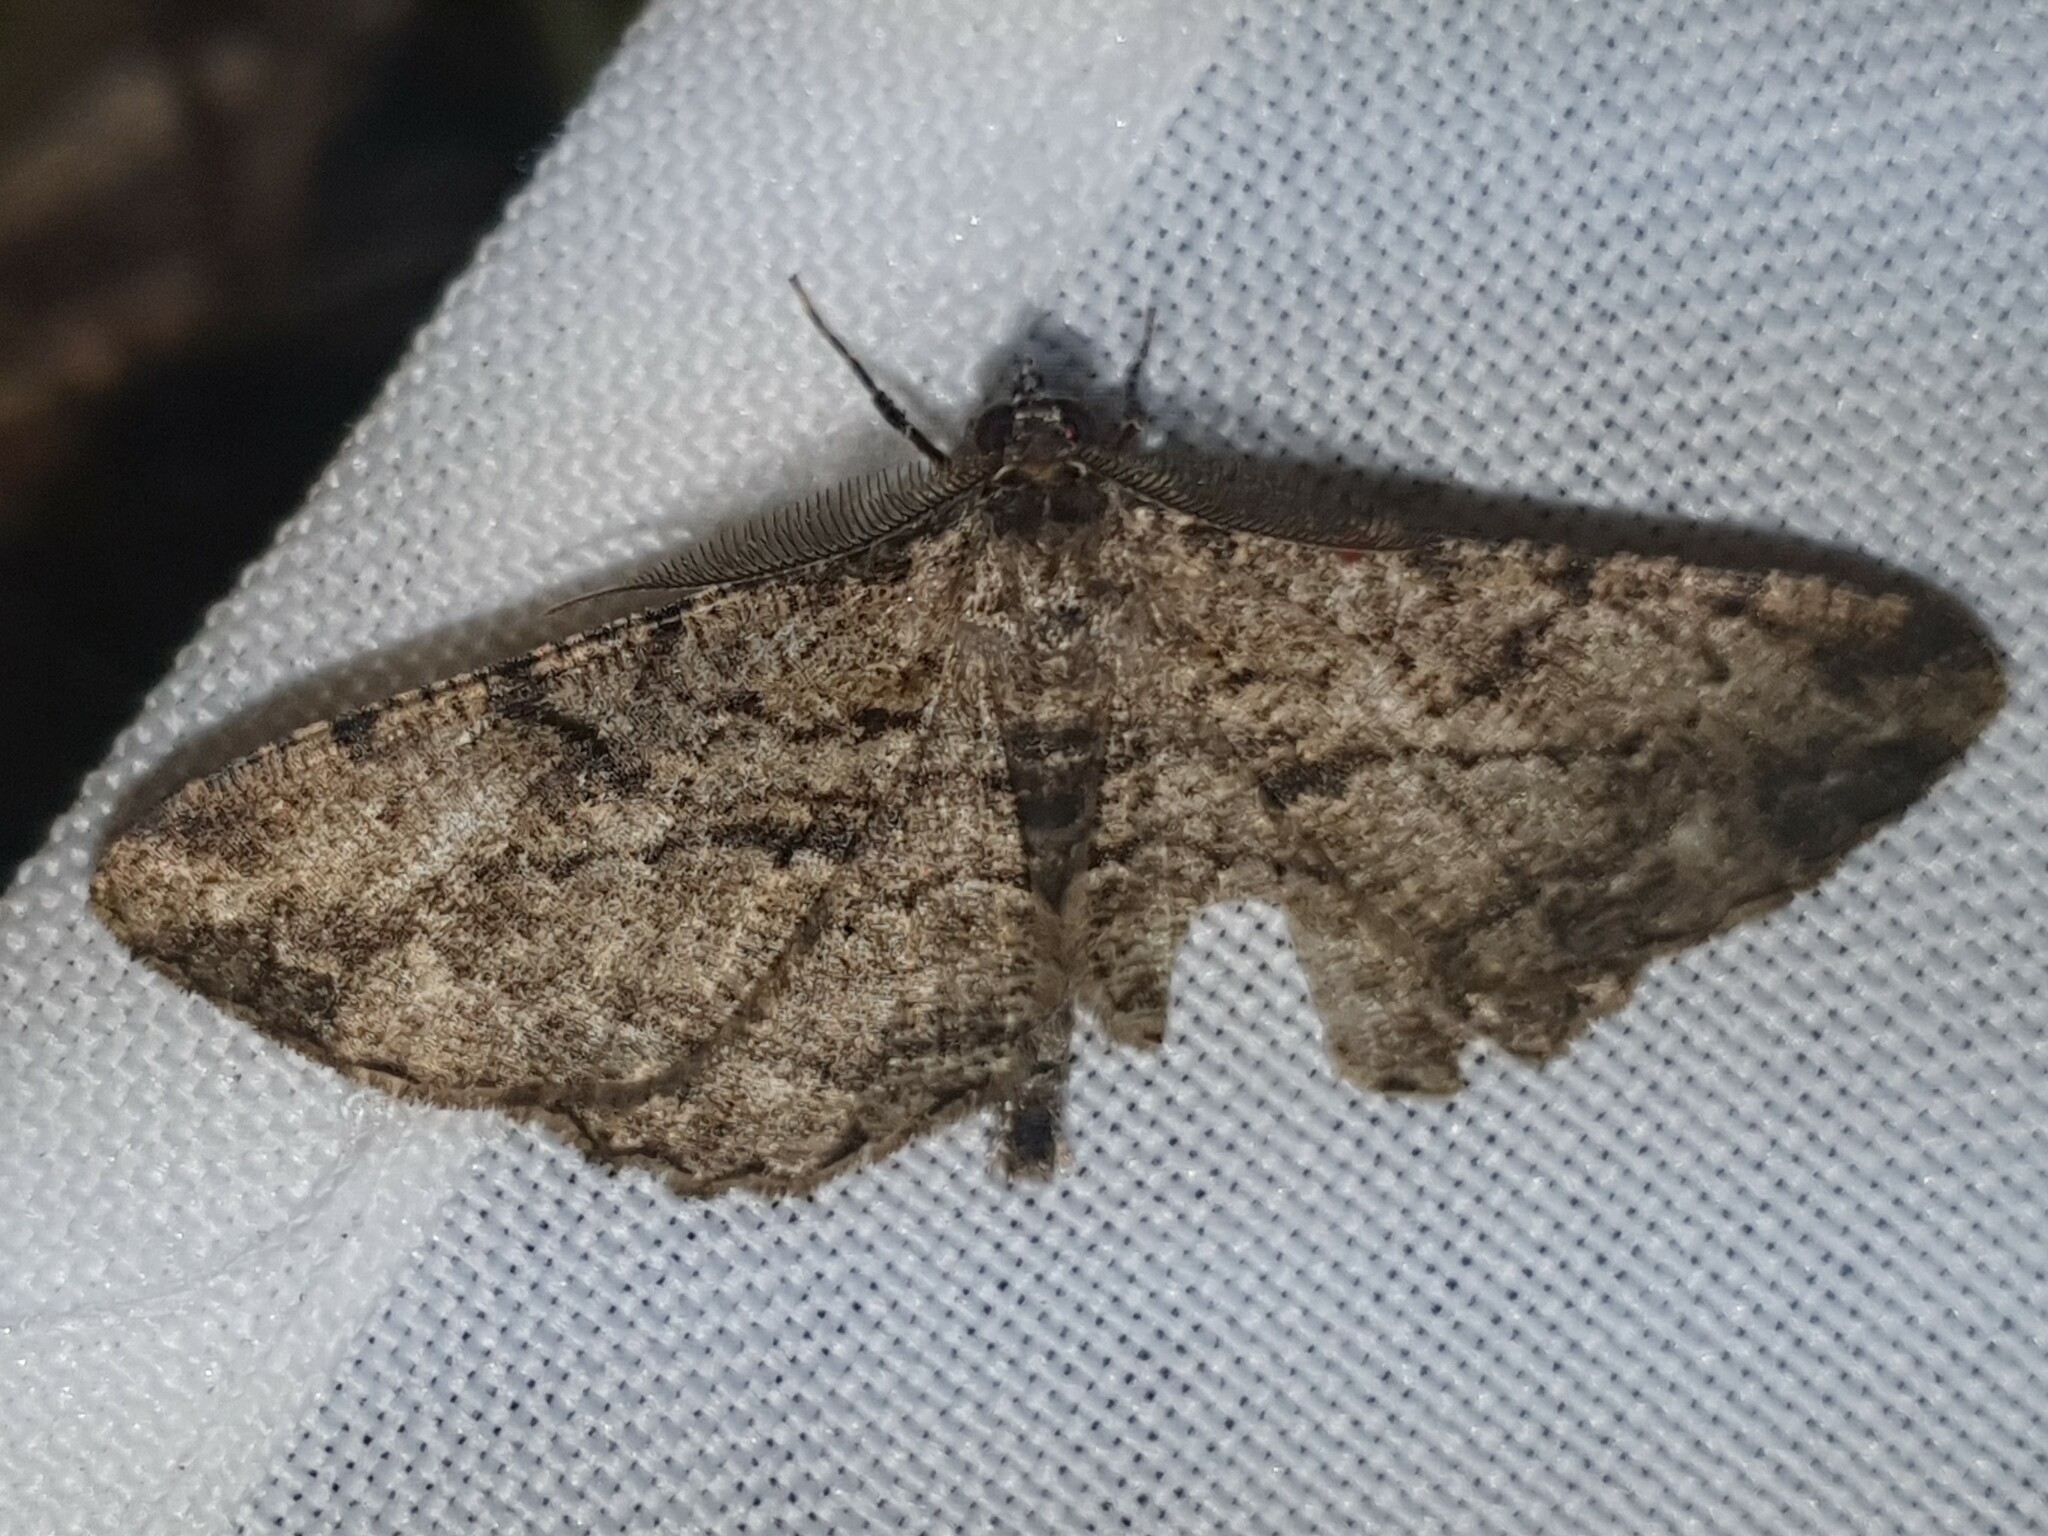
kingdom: Animalia
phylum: Arthropoda
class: Insecta
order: Lepidoptera
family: Geometridae
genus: Peribatodes
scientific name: Peribatodes rhomboidaria
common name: Willow beauty
